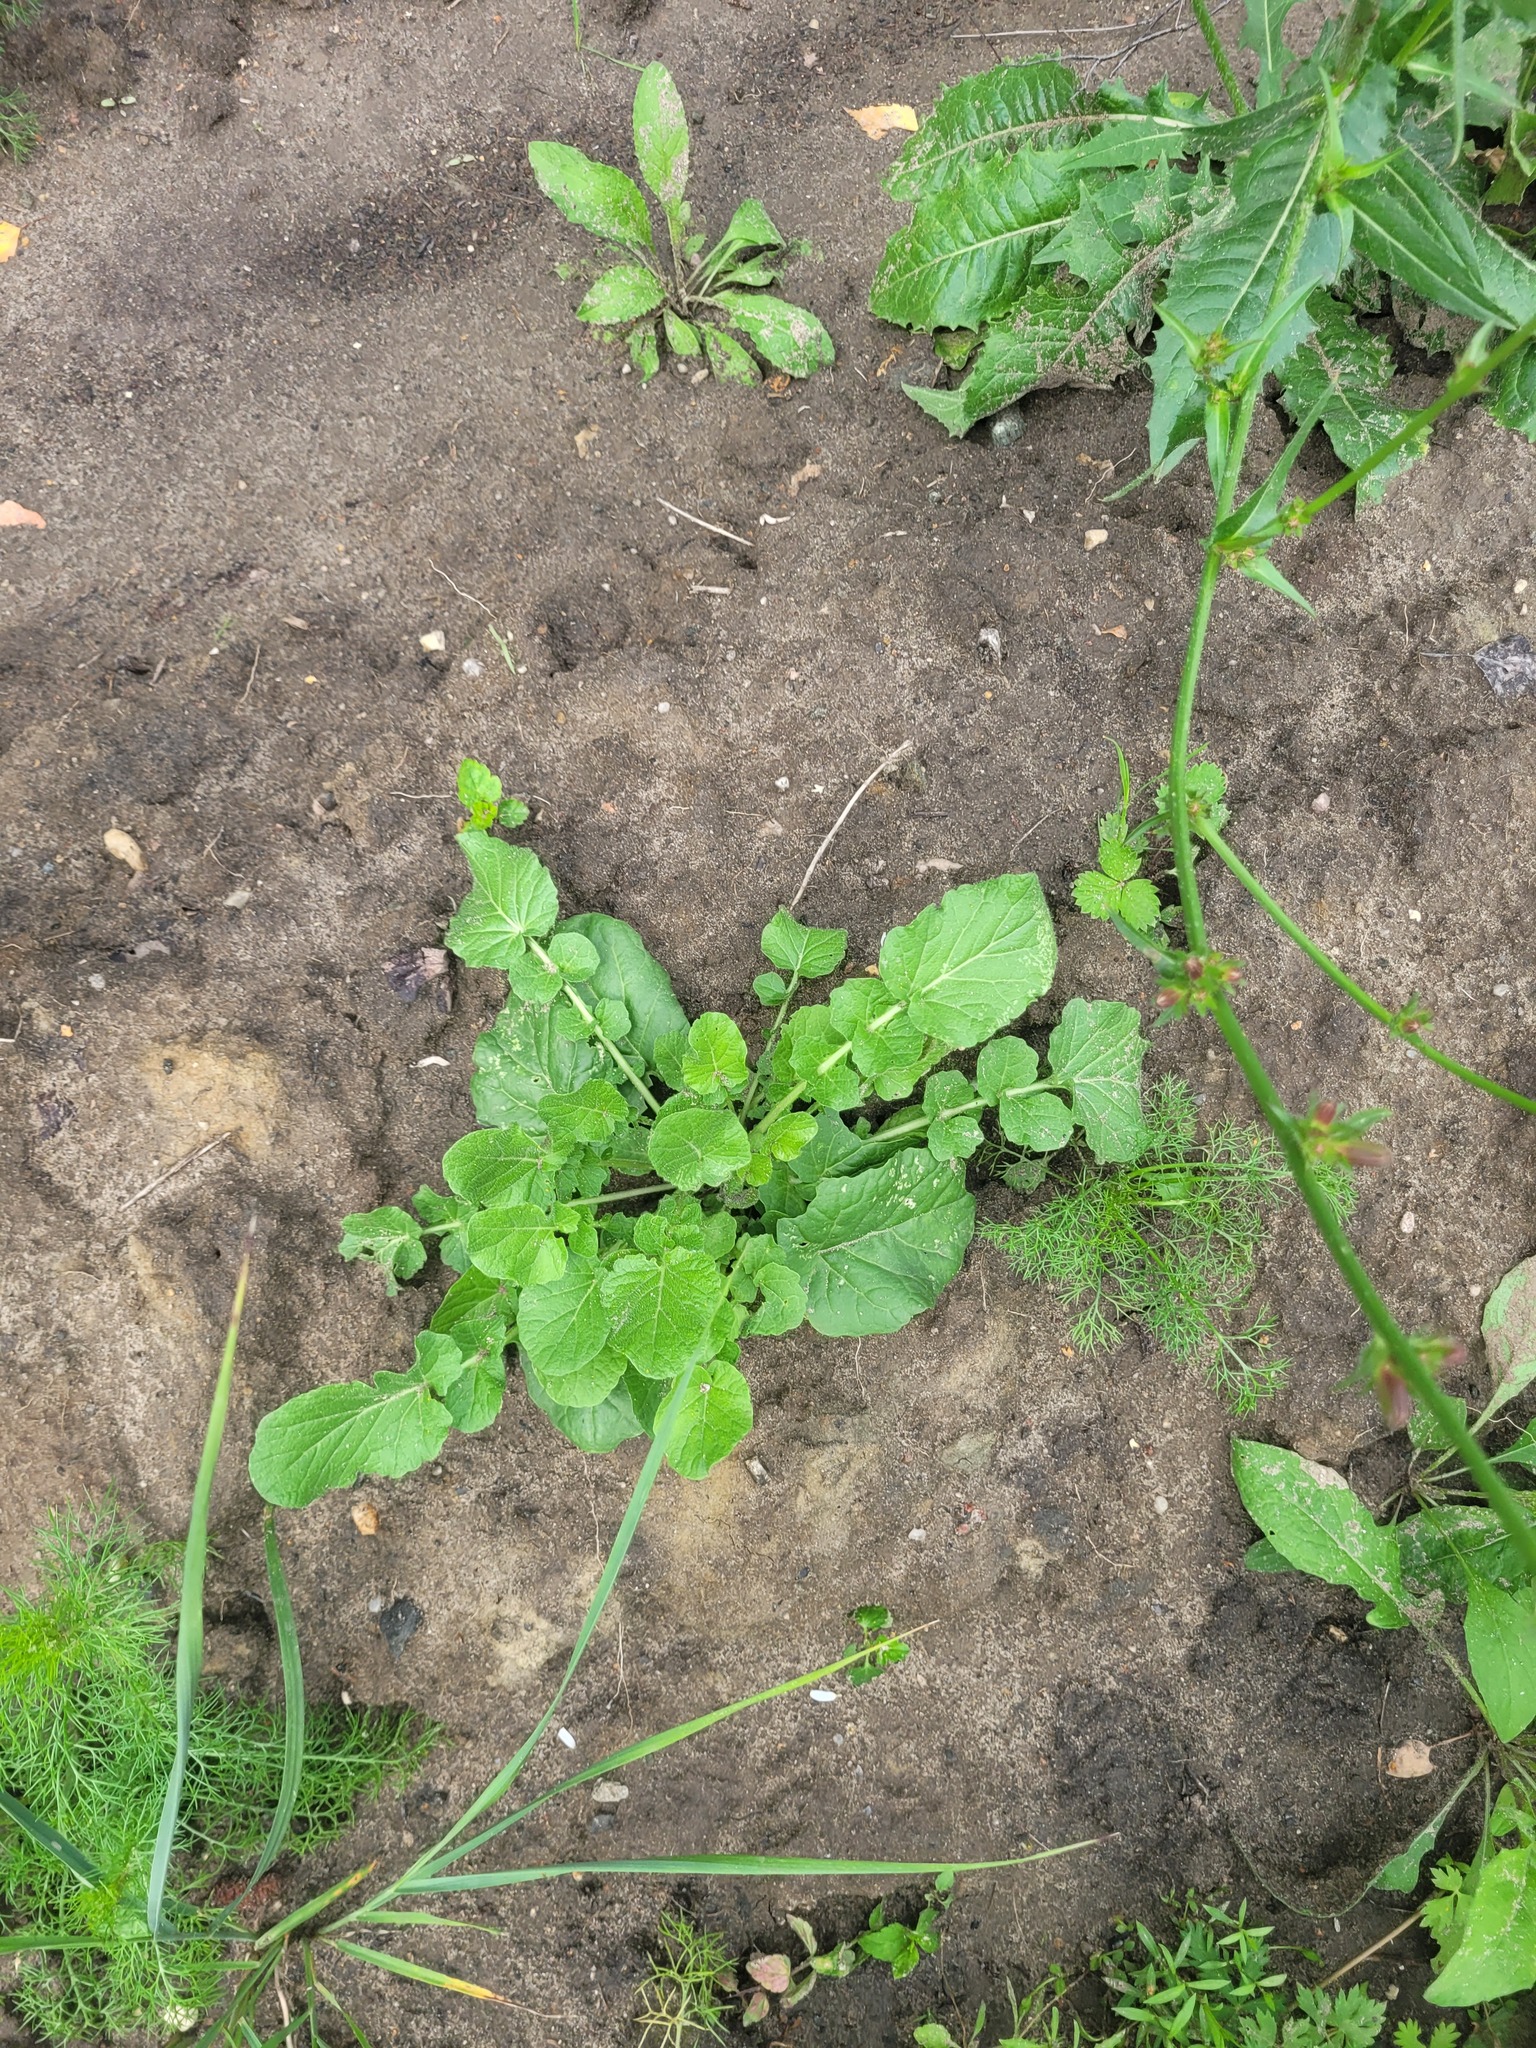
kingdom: Plantae
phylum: Tracheophyta
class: Magnoliopsida
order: Brassicales
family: Brassicaceae
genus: Barbarea
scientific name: Barbarea vulgaris
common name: Cressy-greens
